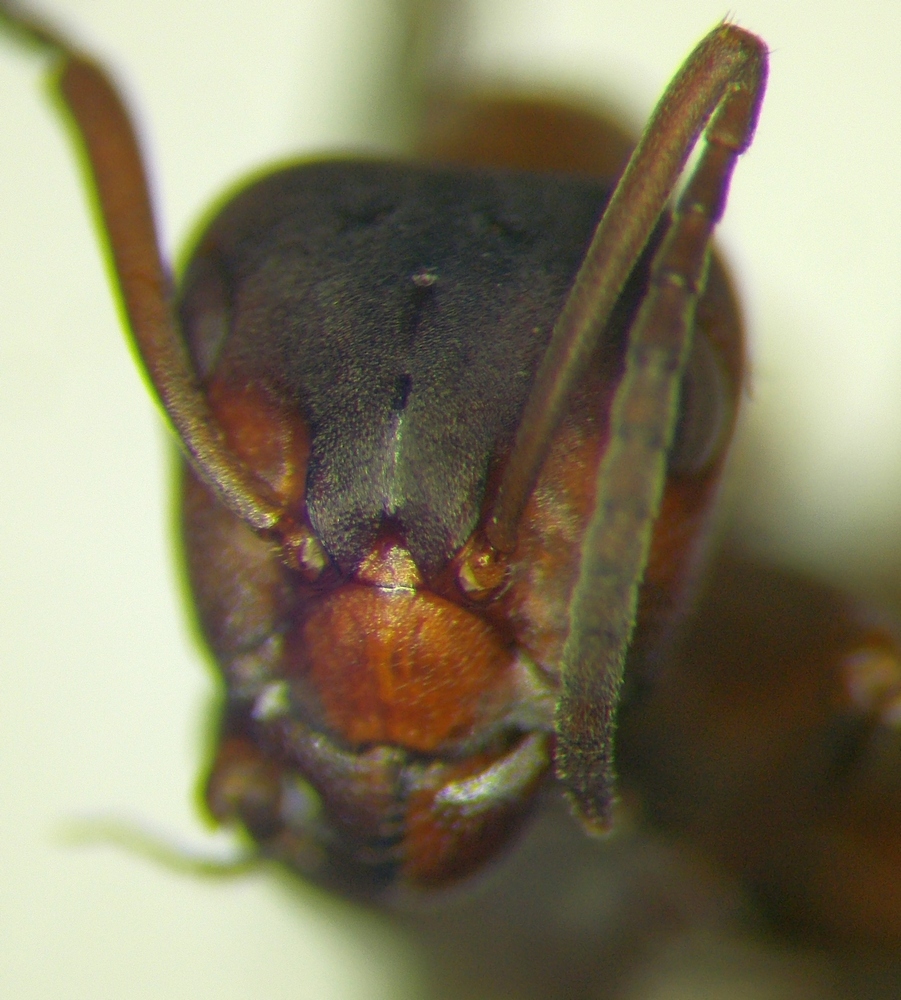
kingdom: Animalia
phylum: Arthropoda
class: Insecta
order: Hymenoptera
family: Formicidae
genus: Formica
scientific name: Formica sanguinea
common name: Blood-red ant
